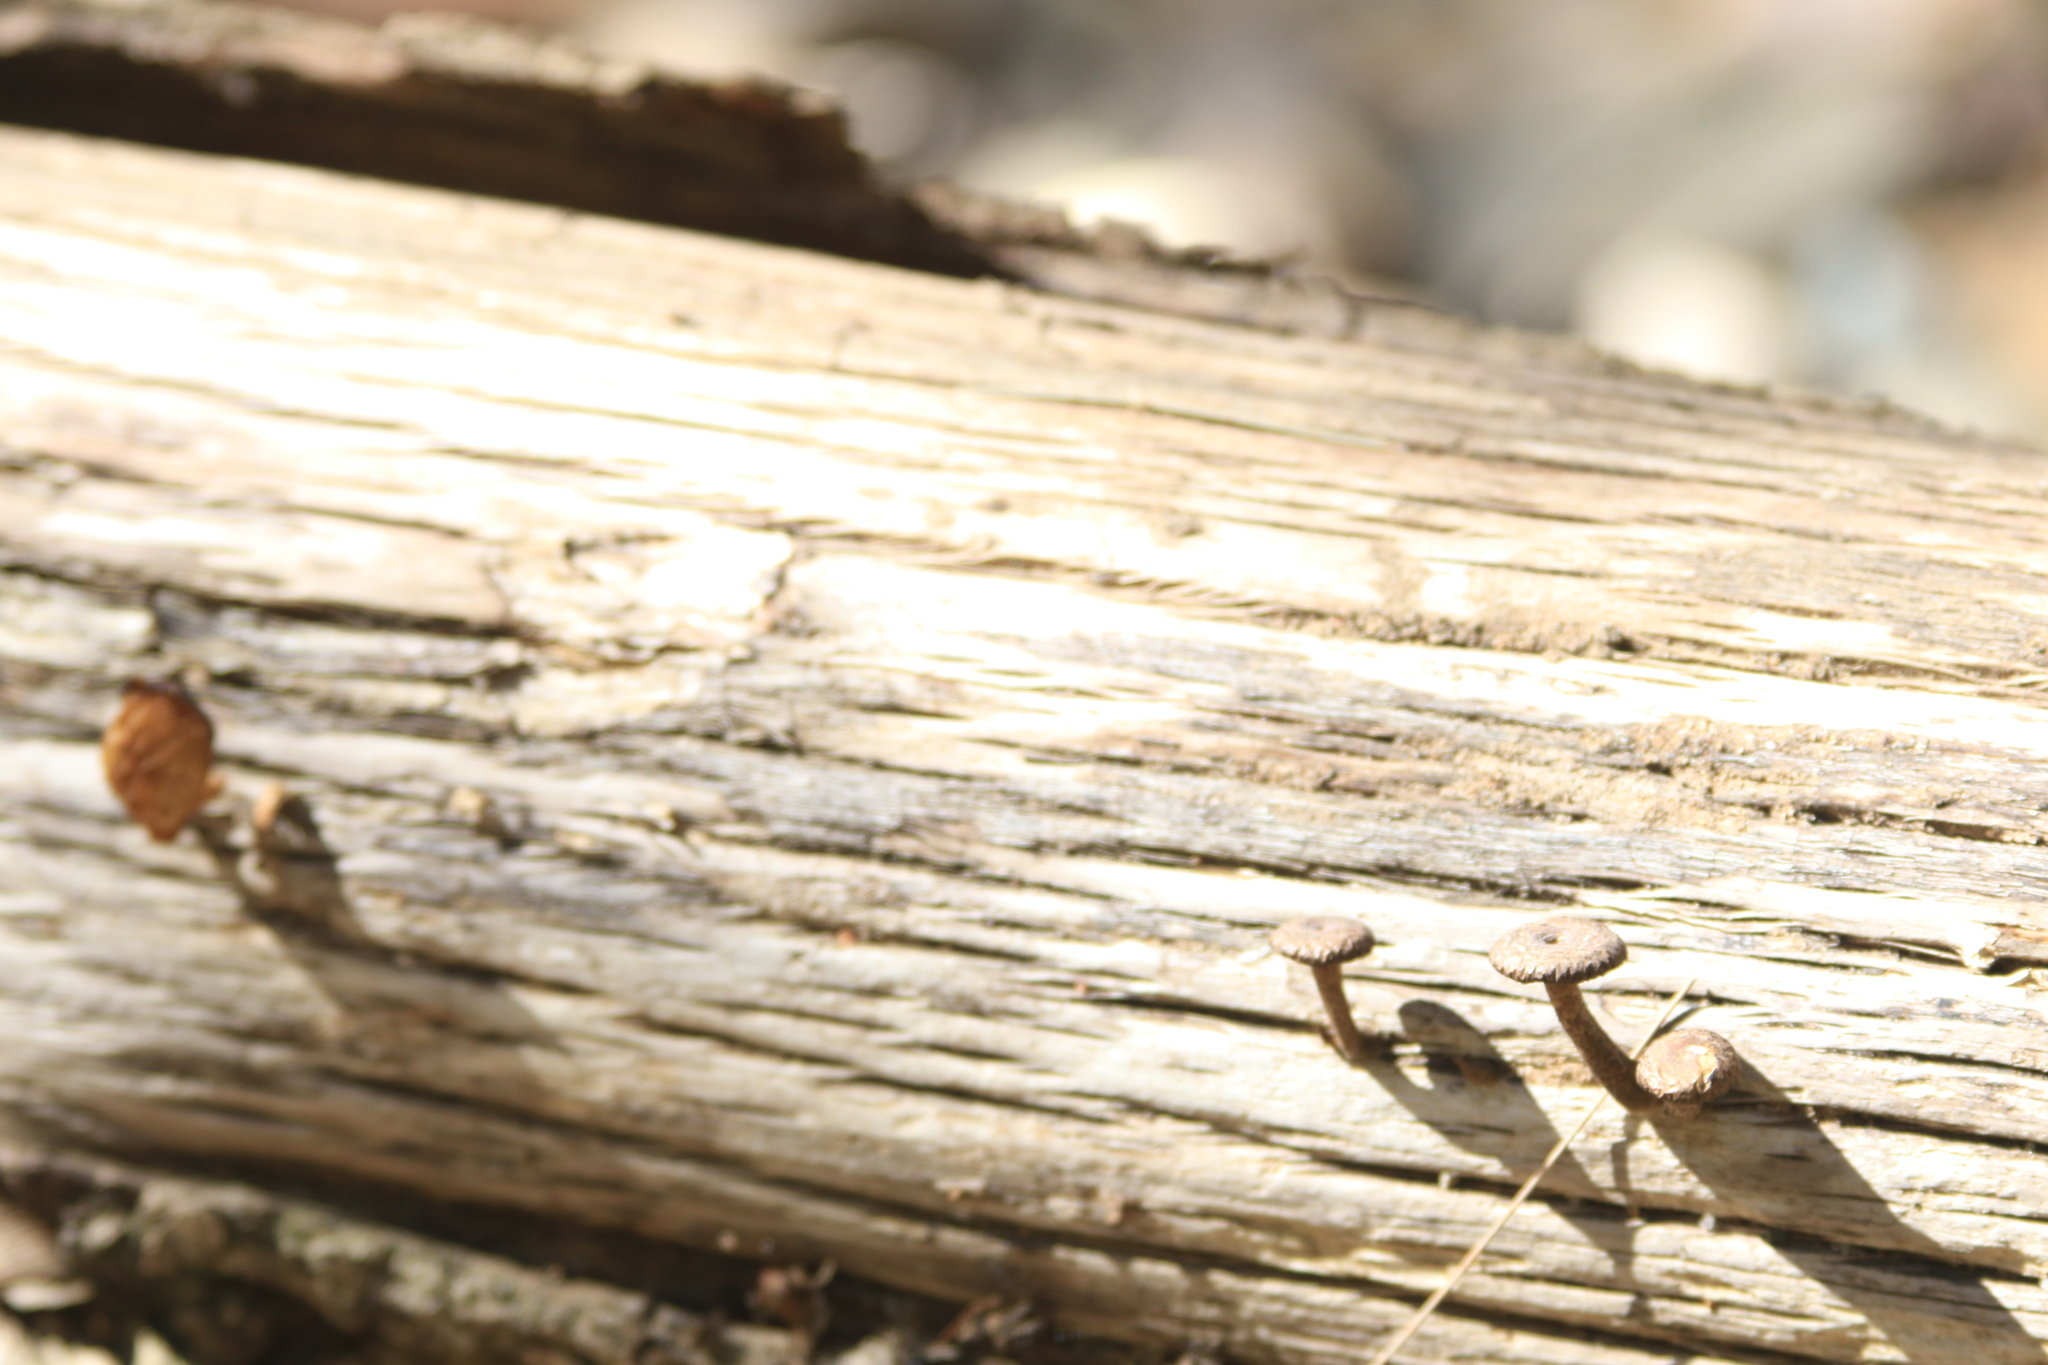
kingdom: Fungi
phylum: Basidiomycota
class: Agaricomycetes
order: Polyporales
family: Polyporaceae
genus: Lentinus
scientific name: Lentinus arcularius
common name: Spring polypore
